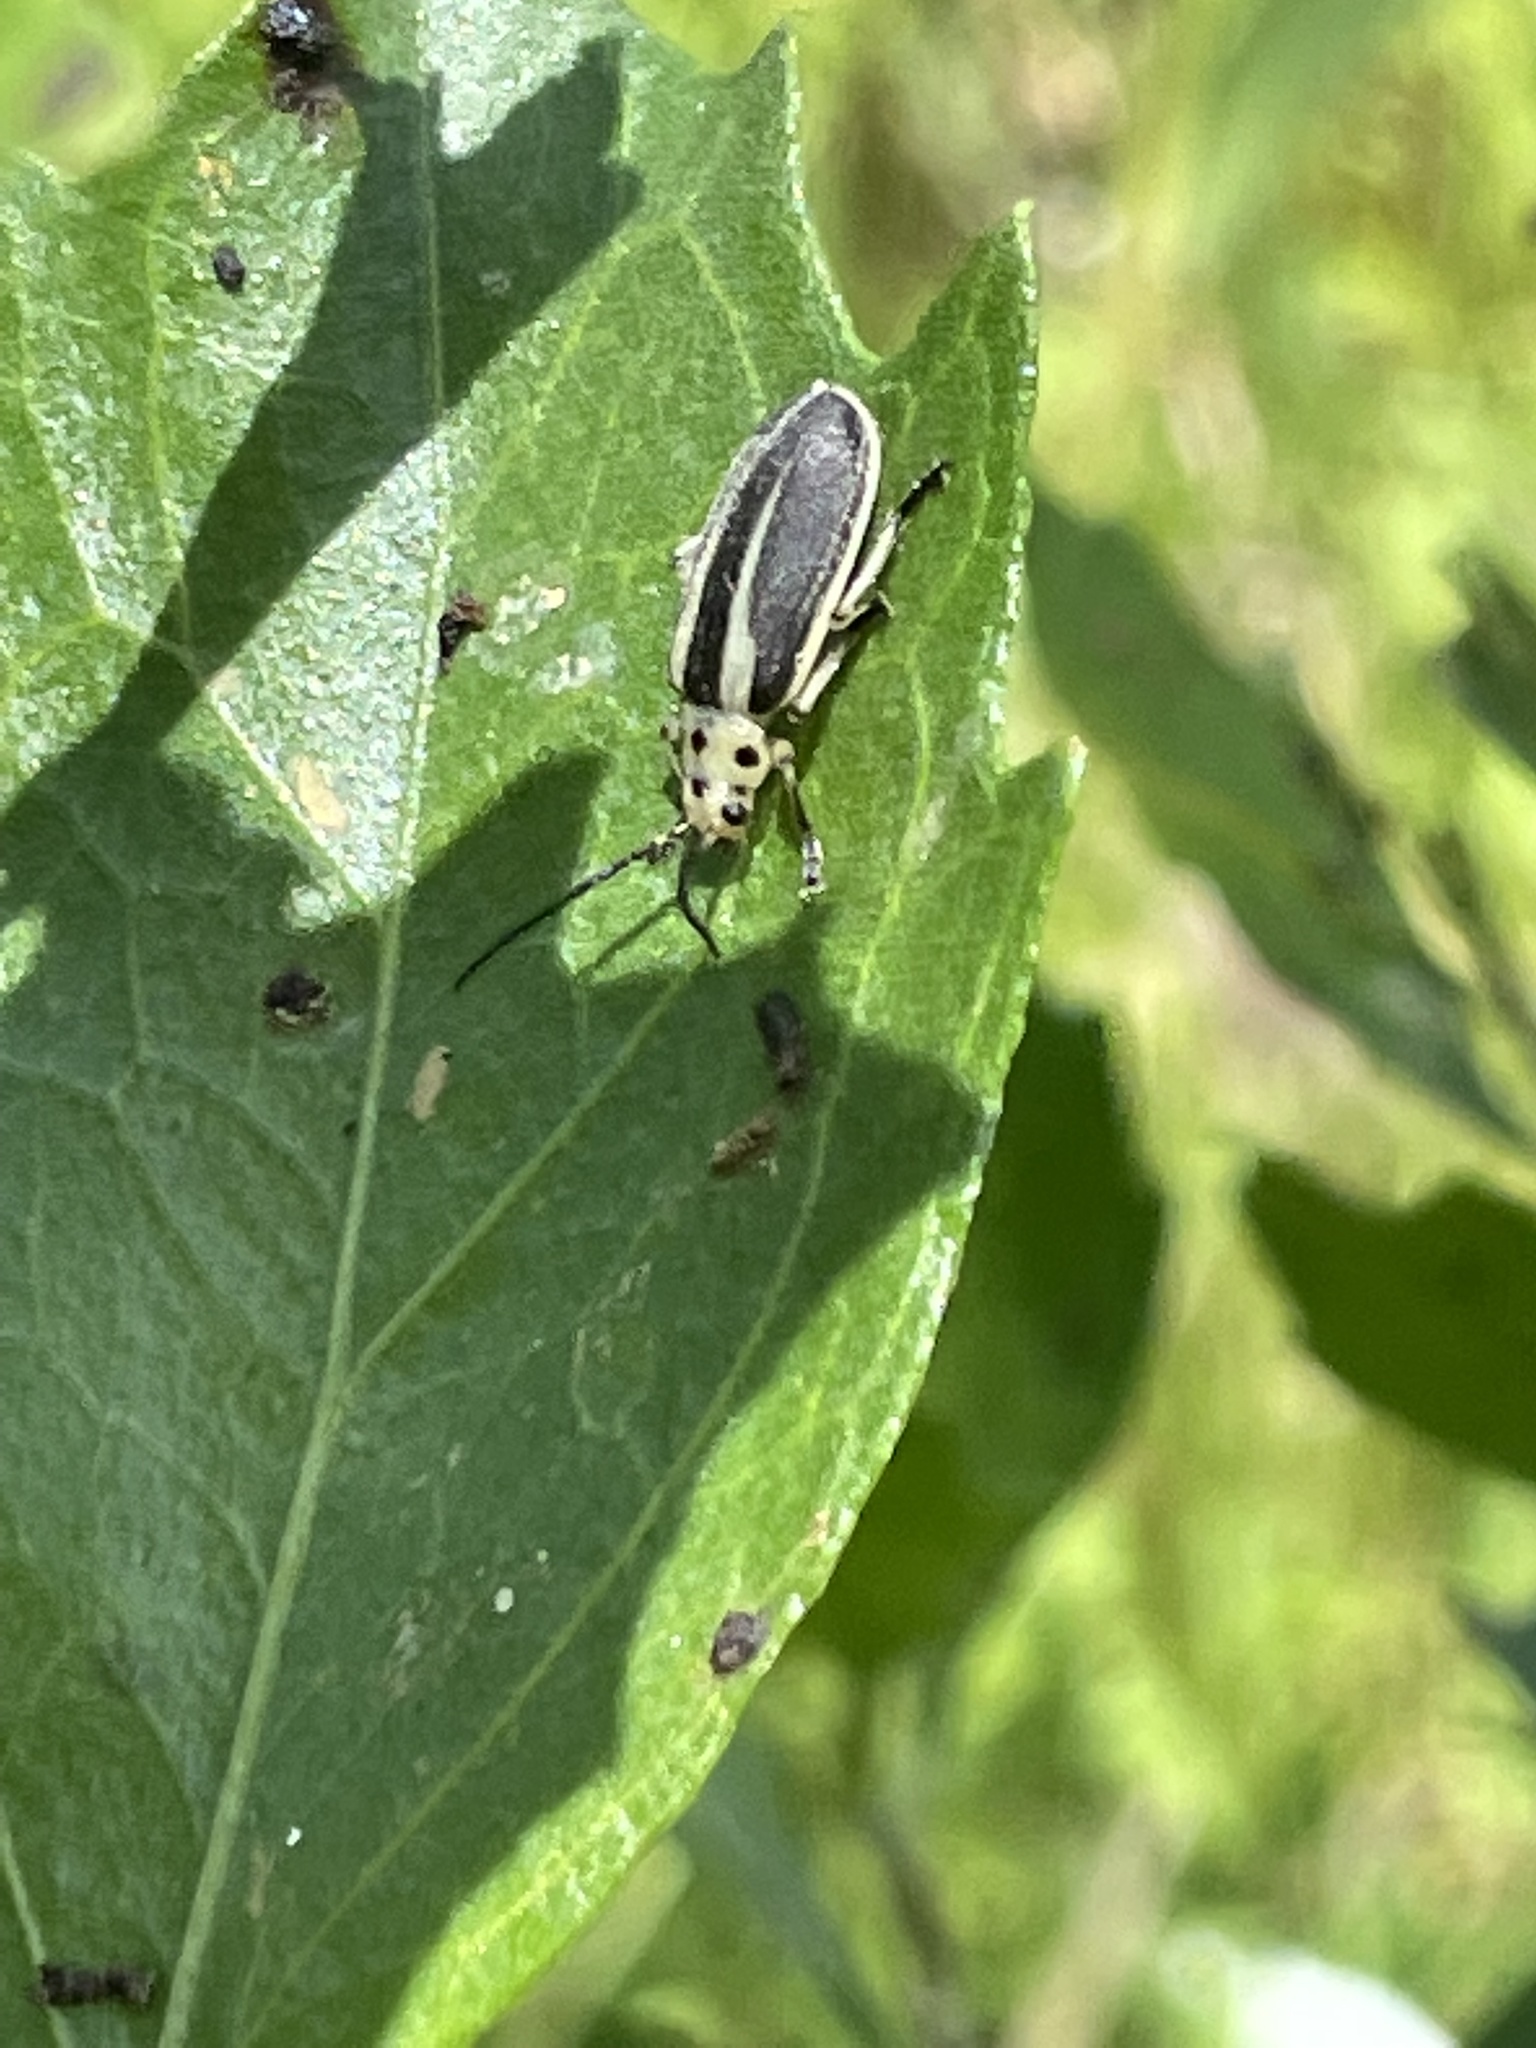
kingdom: Animalia
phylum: Arthropoda
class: Insecta
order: Coleoptera
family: Chrysomelidae
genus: Trirhabda
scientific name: Trirhabda bacharidis
